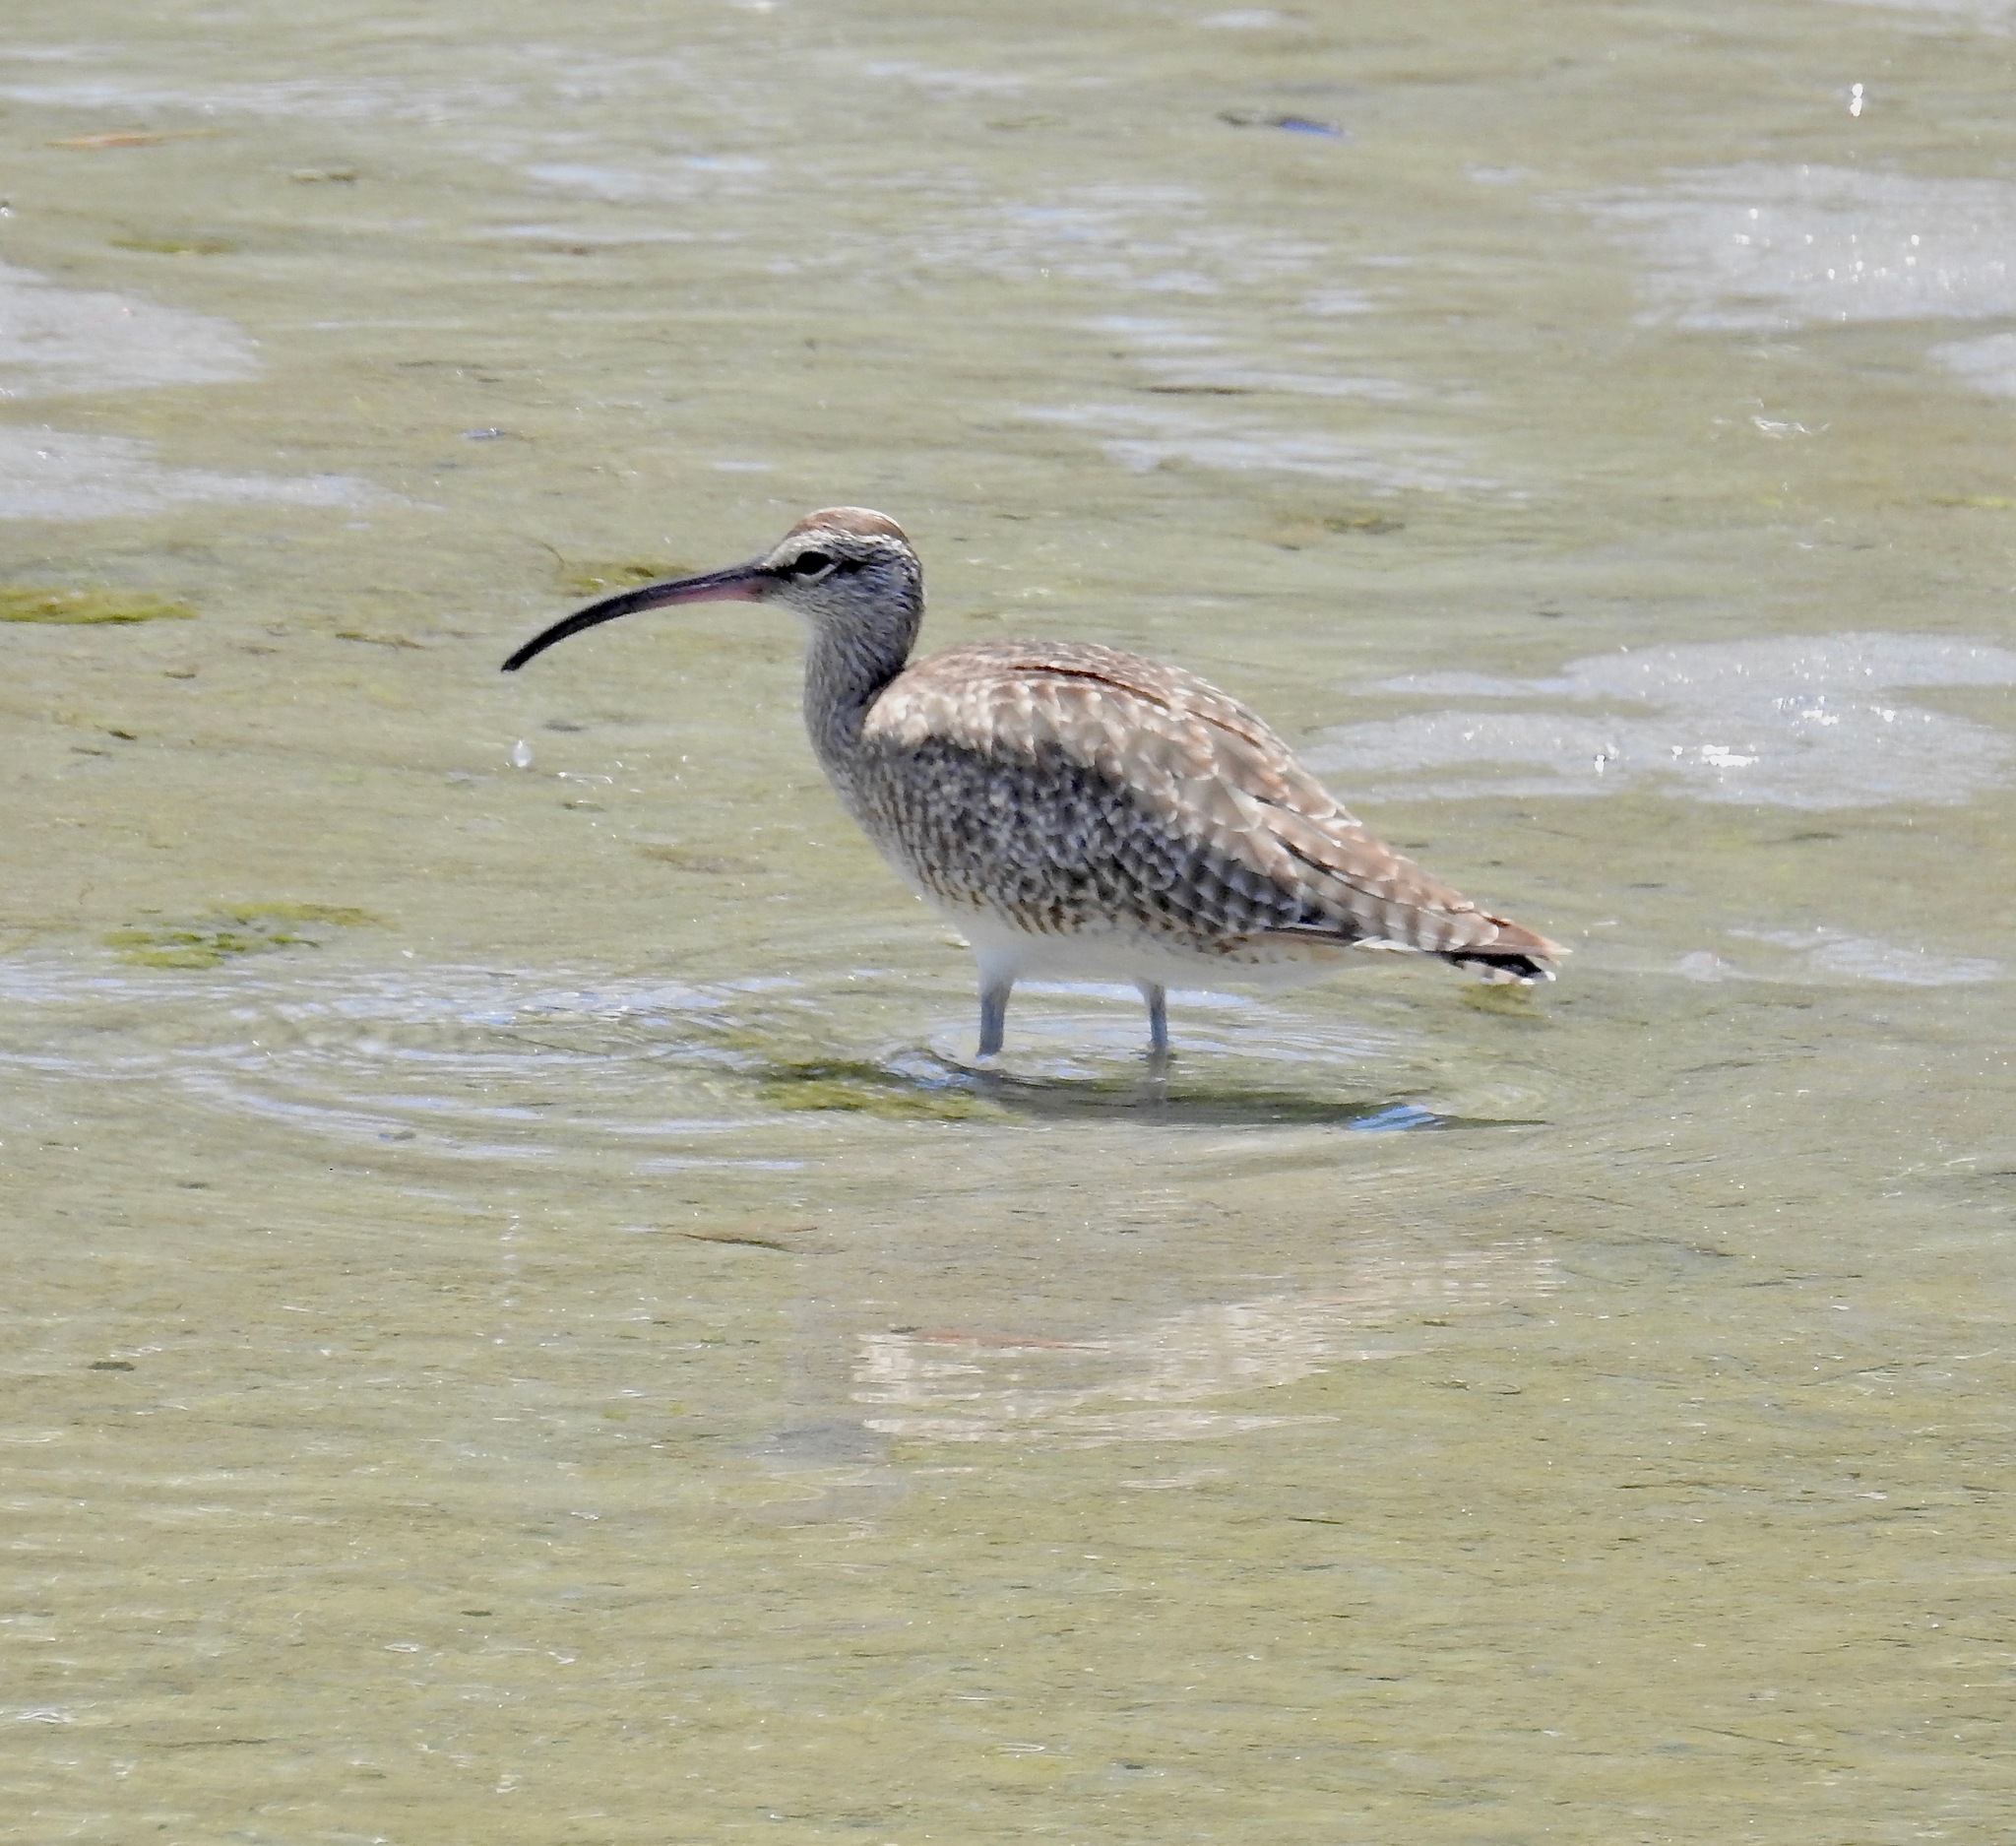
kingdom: Animalia
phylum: Chordata
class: Aves
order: Charadriiformes
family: Scolopacidae
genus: Numenius
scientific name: Numenius phaeopus
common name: Whimbrel
